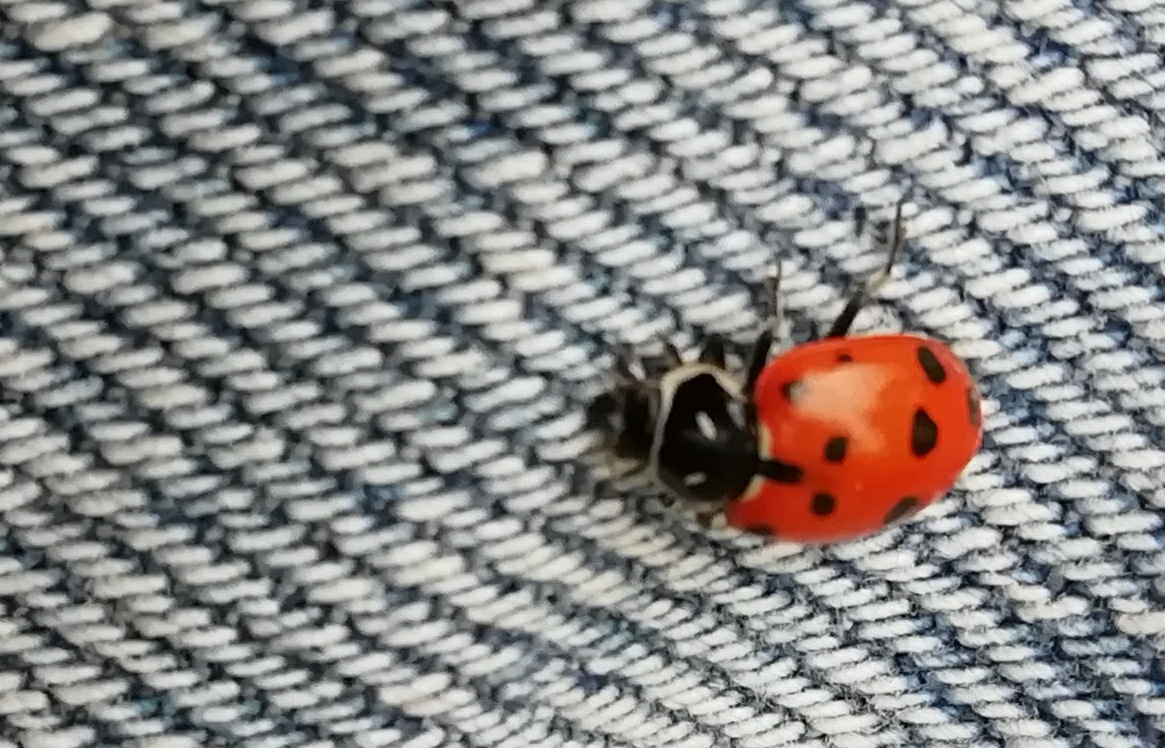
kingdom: Animalia
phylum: Arthropoda
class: Insecta
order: Coleoptera
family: Coccinellidae
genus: Hippodamia
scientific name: Hippodamia convergens
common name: Convergent lady beetle
